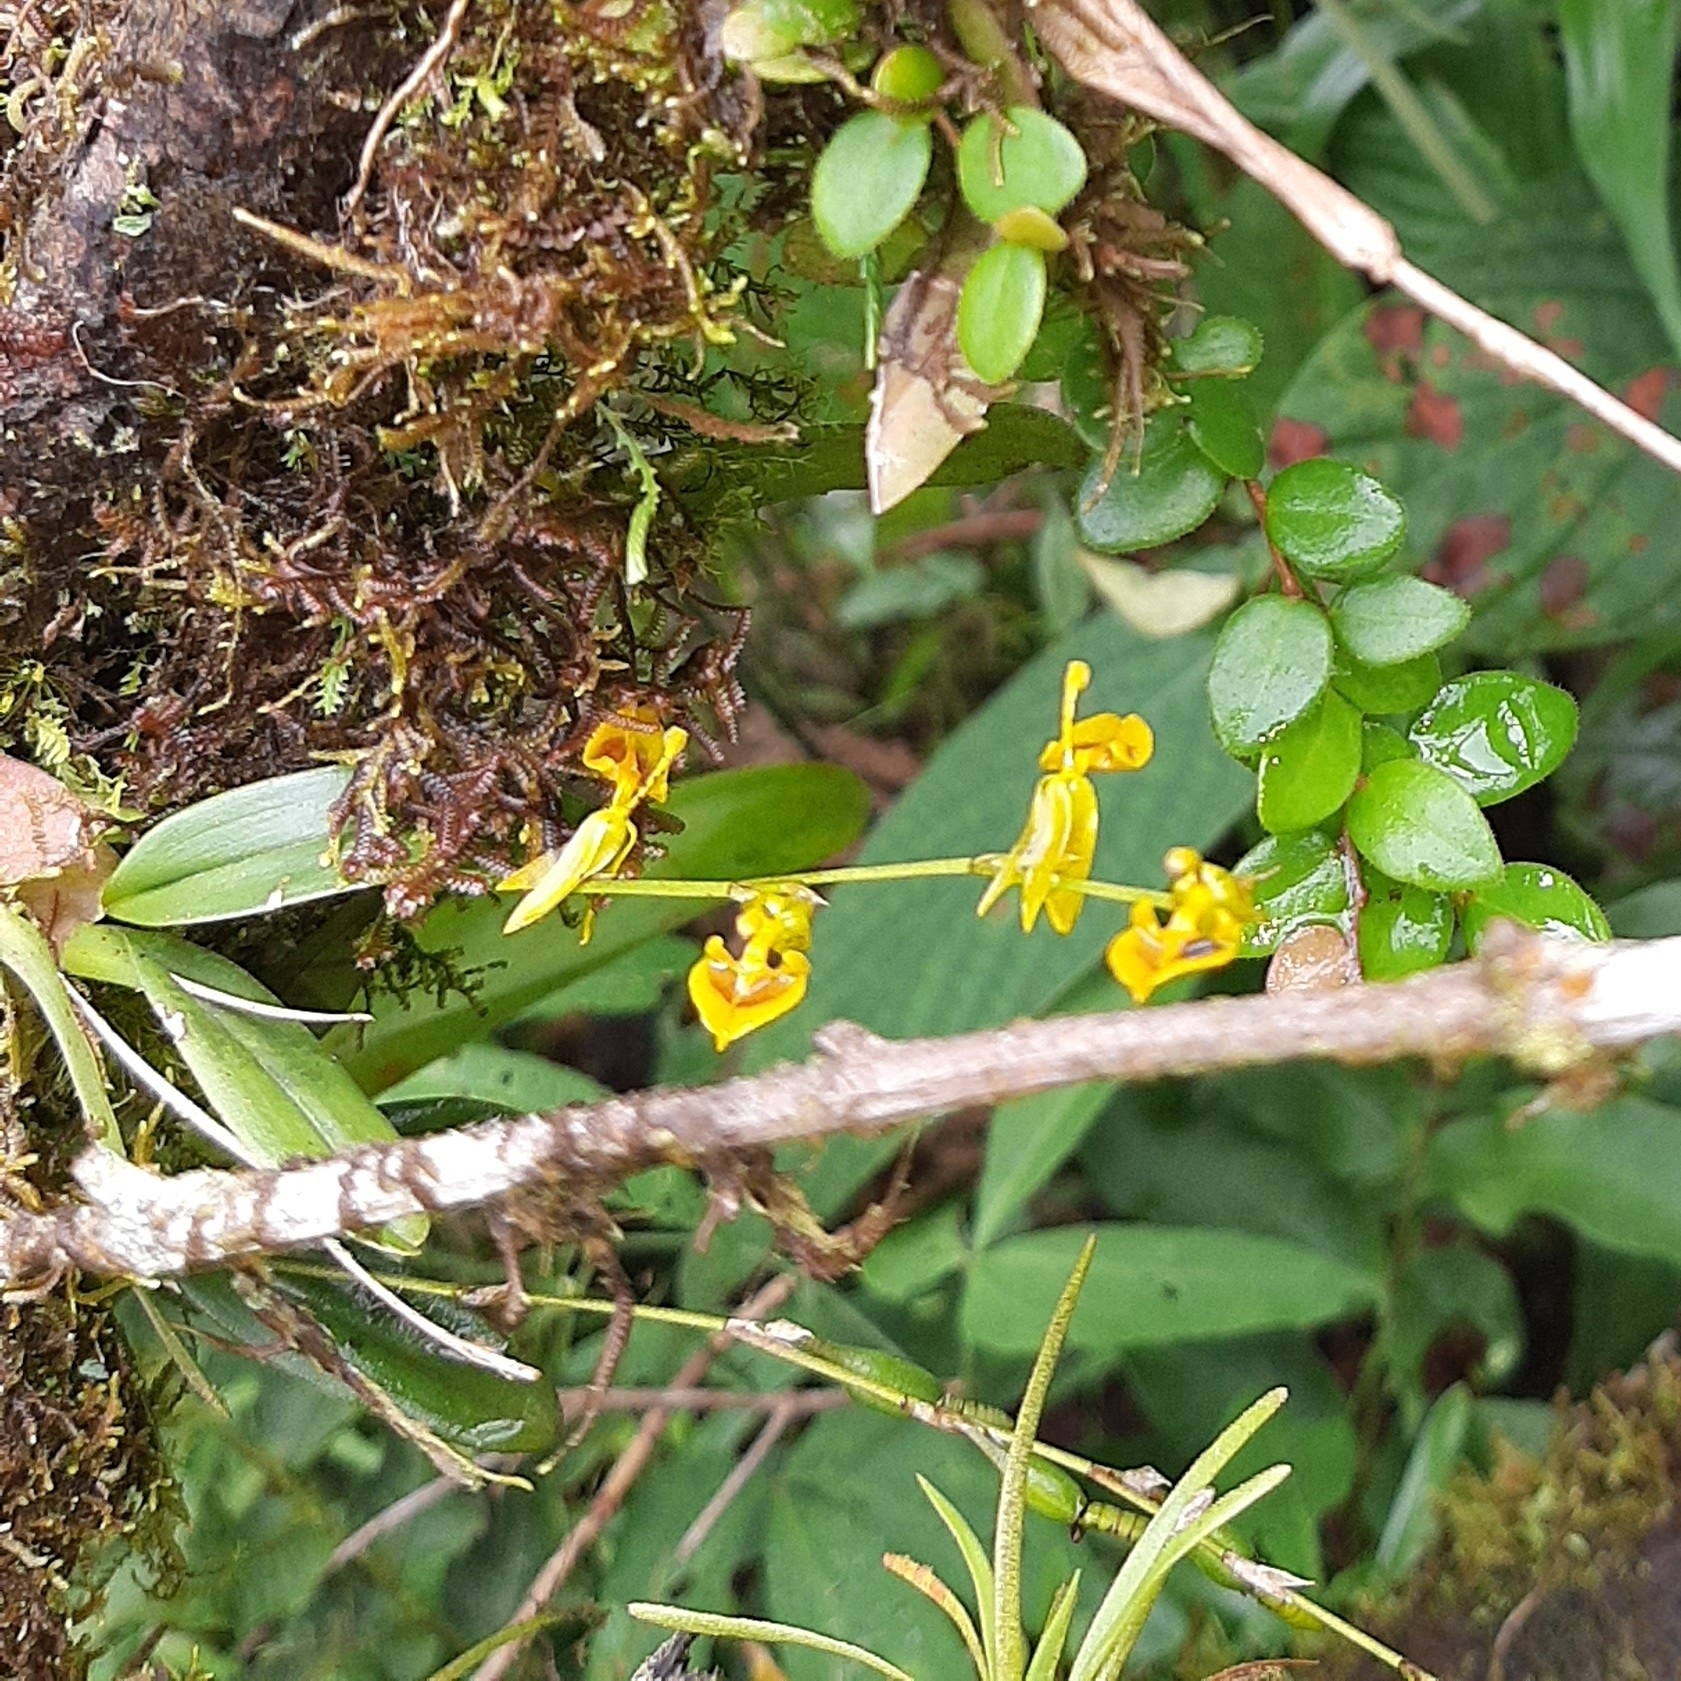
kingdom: Plantae
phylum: Tracheophyta
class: Liliopsida
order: Asparagales
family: Orchidaceae
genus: Oncidium
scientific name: Oncidium poikilostalix
